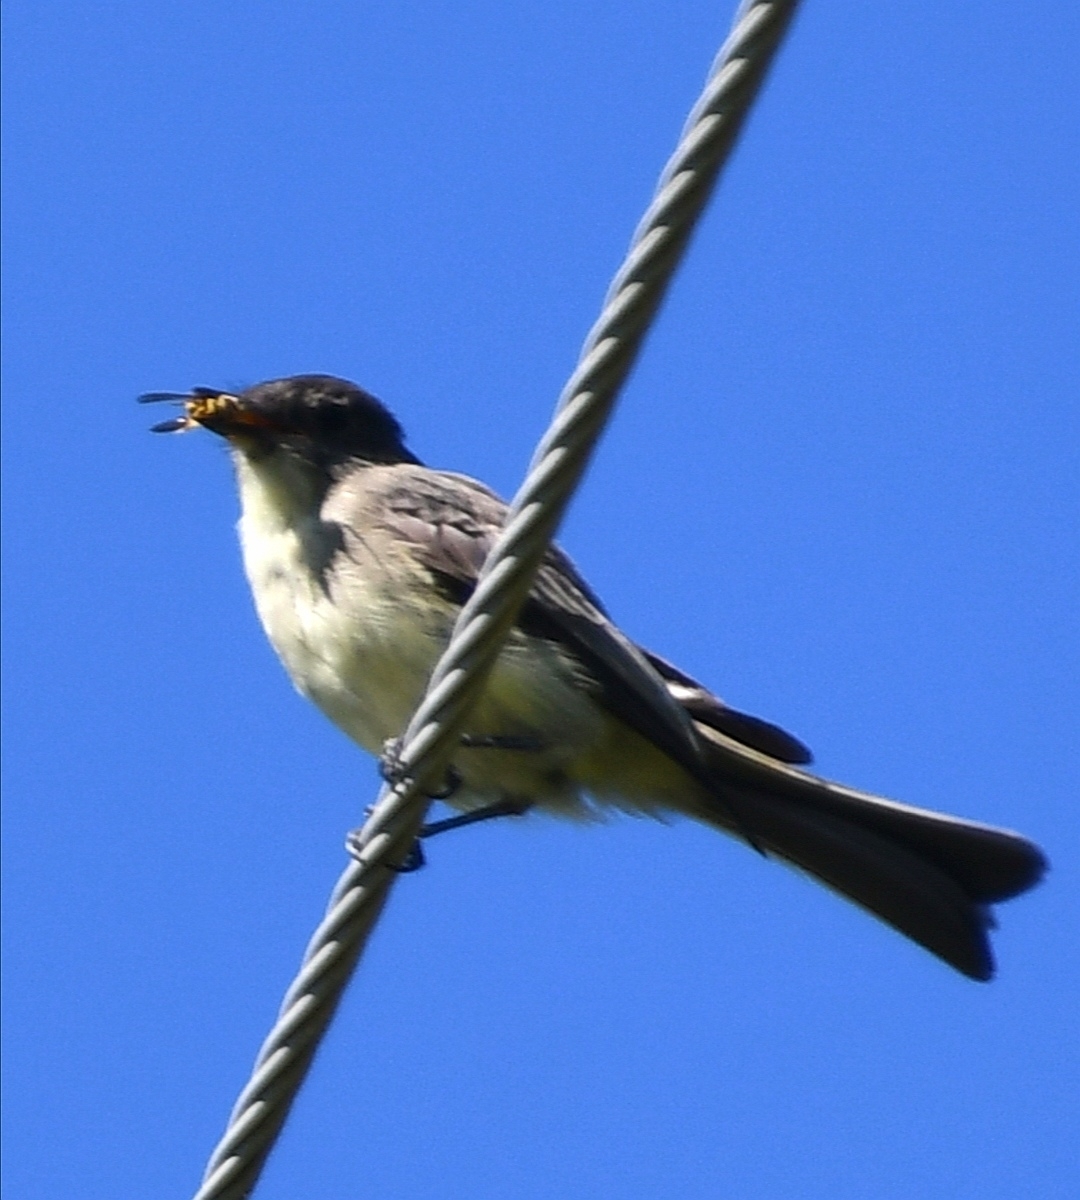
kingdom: Animalia
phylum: Chordata
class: Aves
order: Passeriformes
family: Tyrannidae
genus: Sayornis
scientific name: Sayornis phoebe
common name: Eastern phoebe
